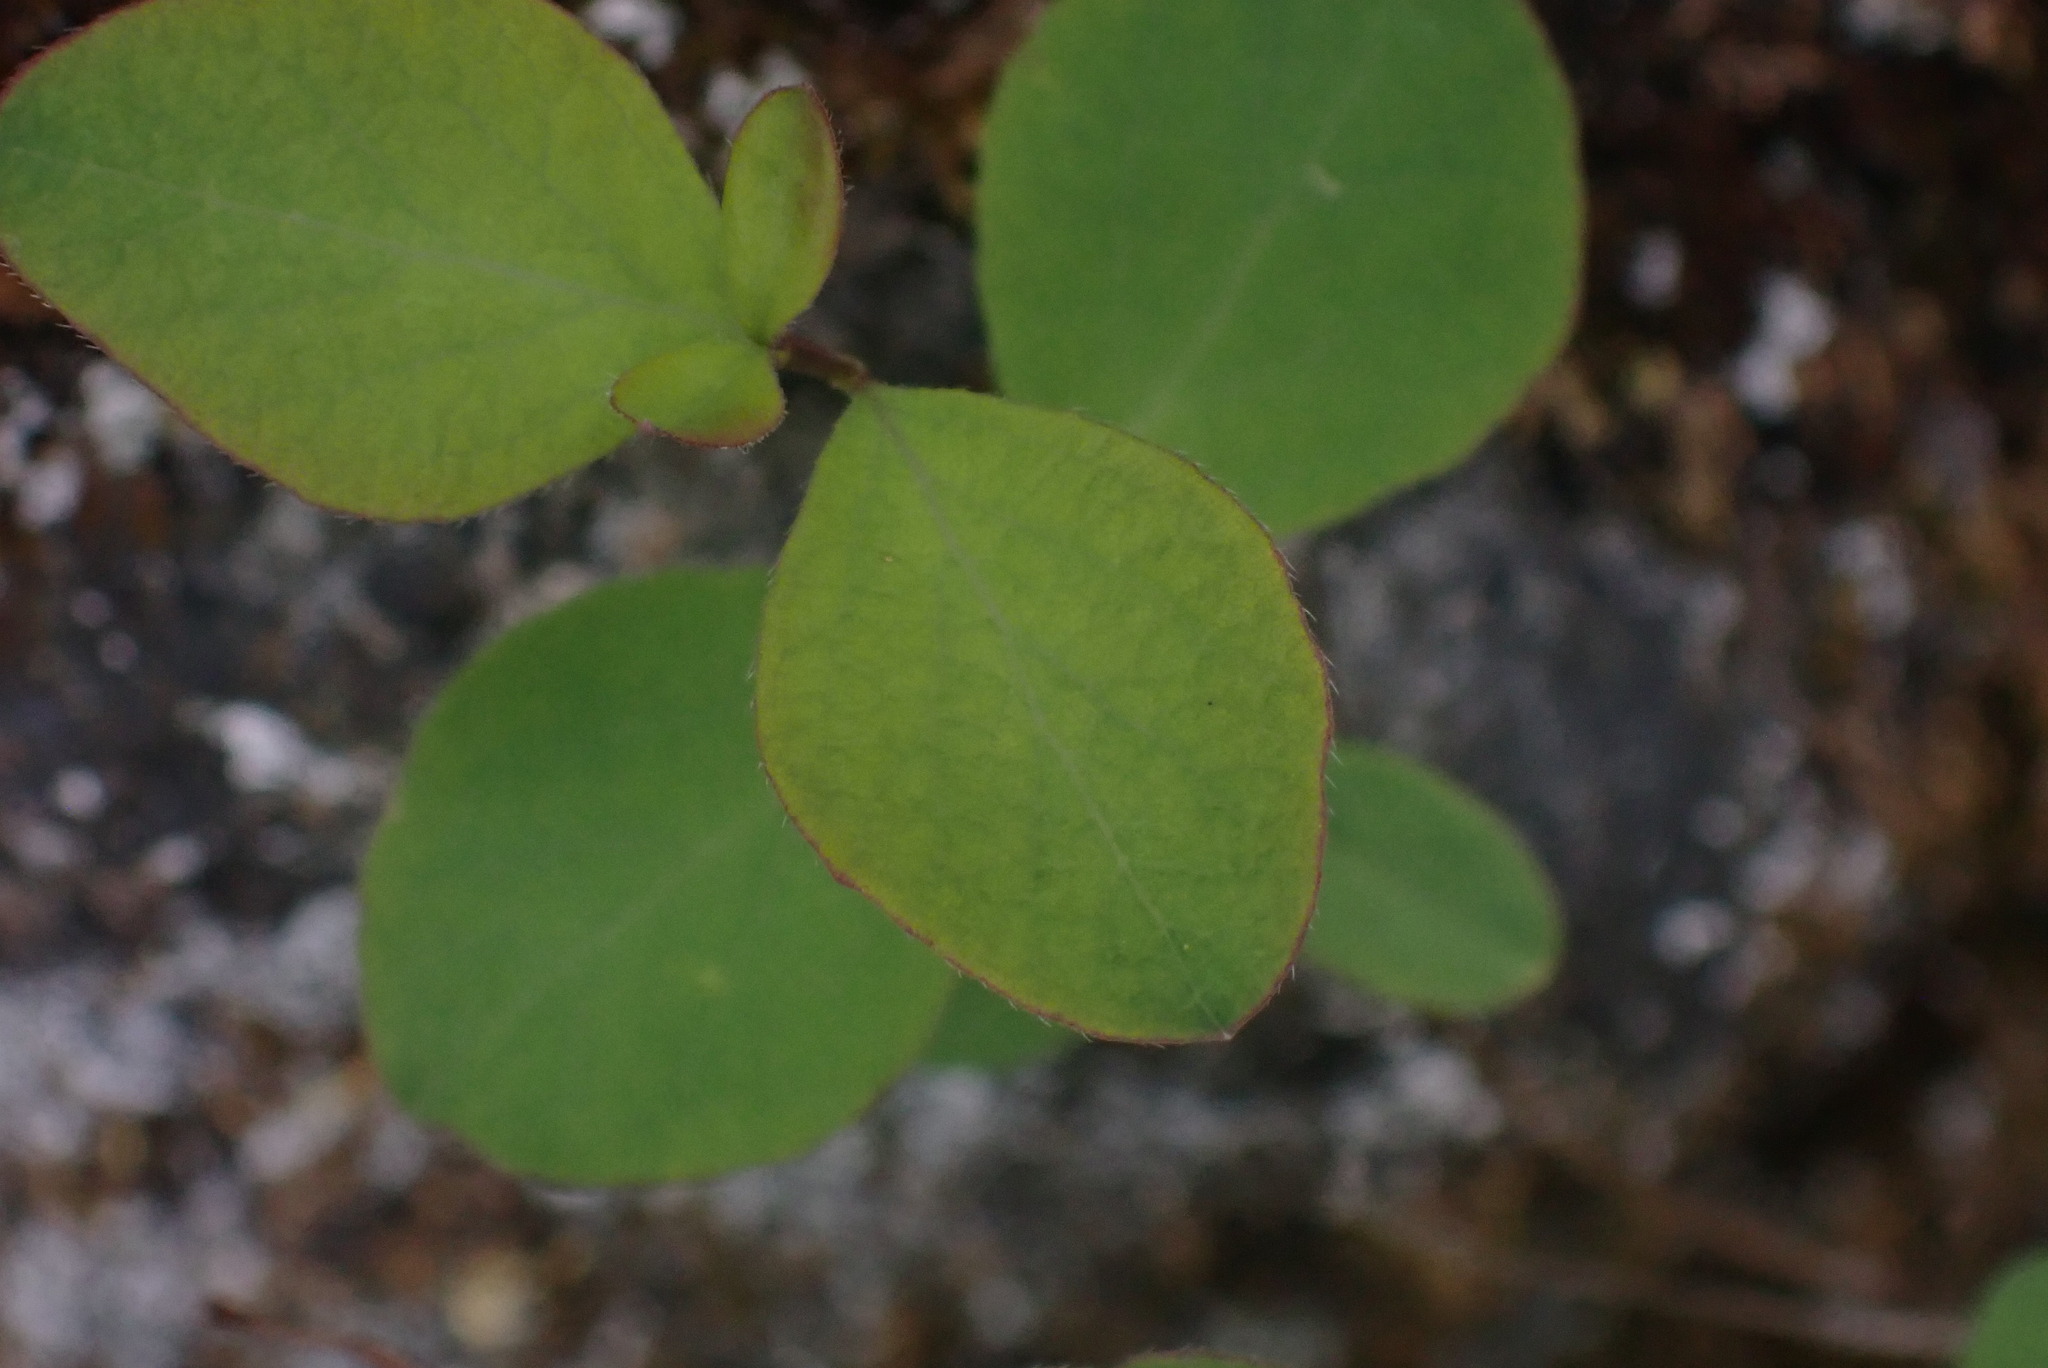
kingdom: Plantae
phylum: Tracheophyta
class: Magnoliopsida
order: Dipsacales
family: Caprifoliaceae
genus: Symphoricarpos
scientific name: Symphoricarpos albus
